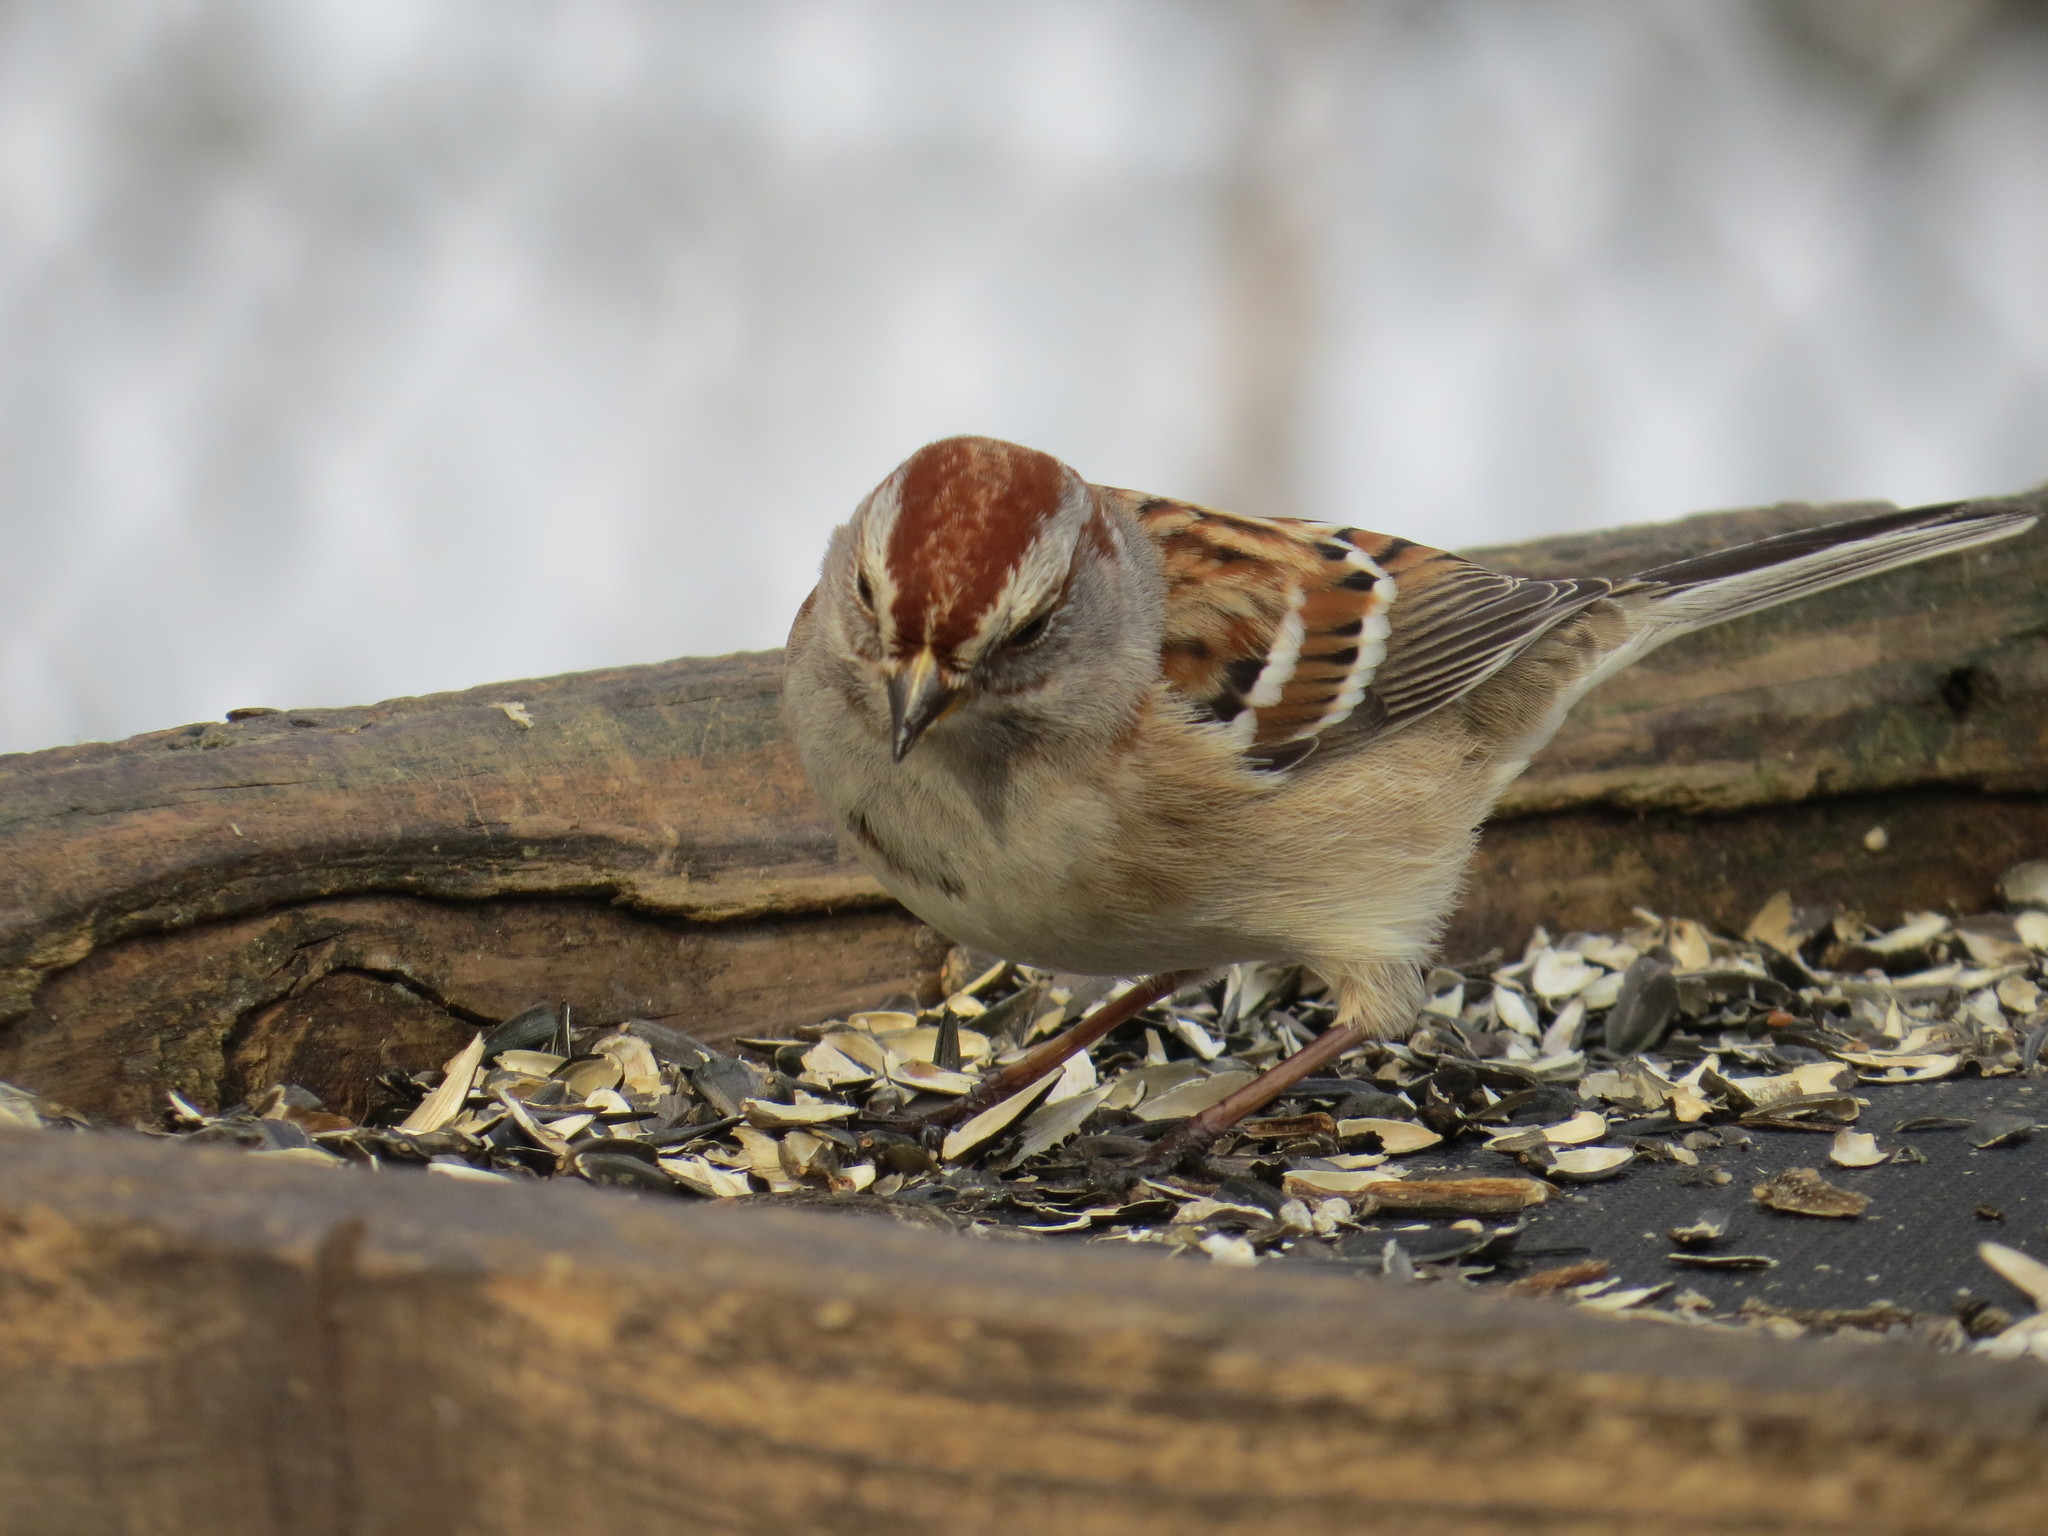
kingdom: Animalia
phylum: Chordata
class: Aves
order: Passeriformes
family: Passerellidae
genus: Spizelloides
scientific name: Spizelloides arborea
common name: American tree sparrow
